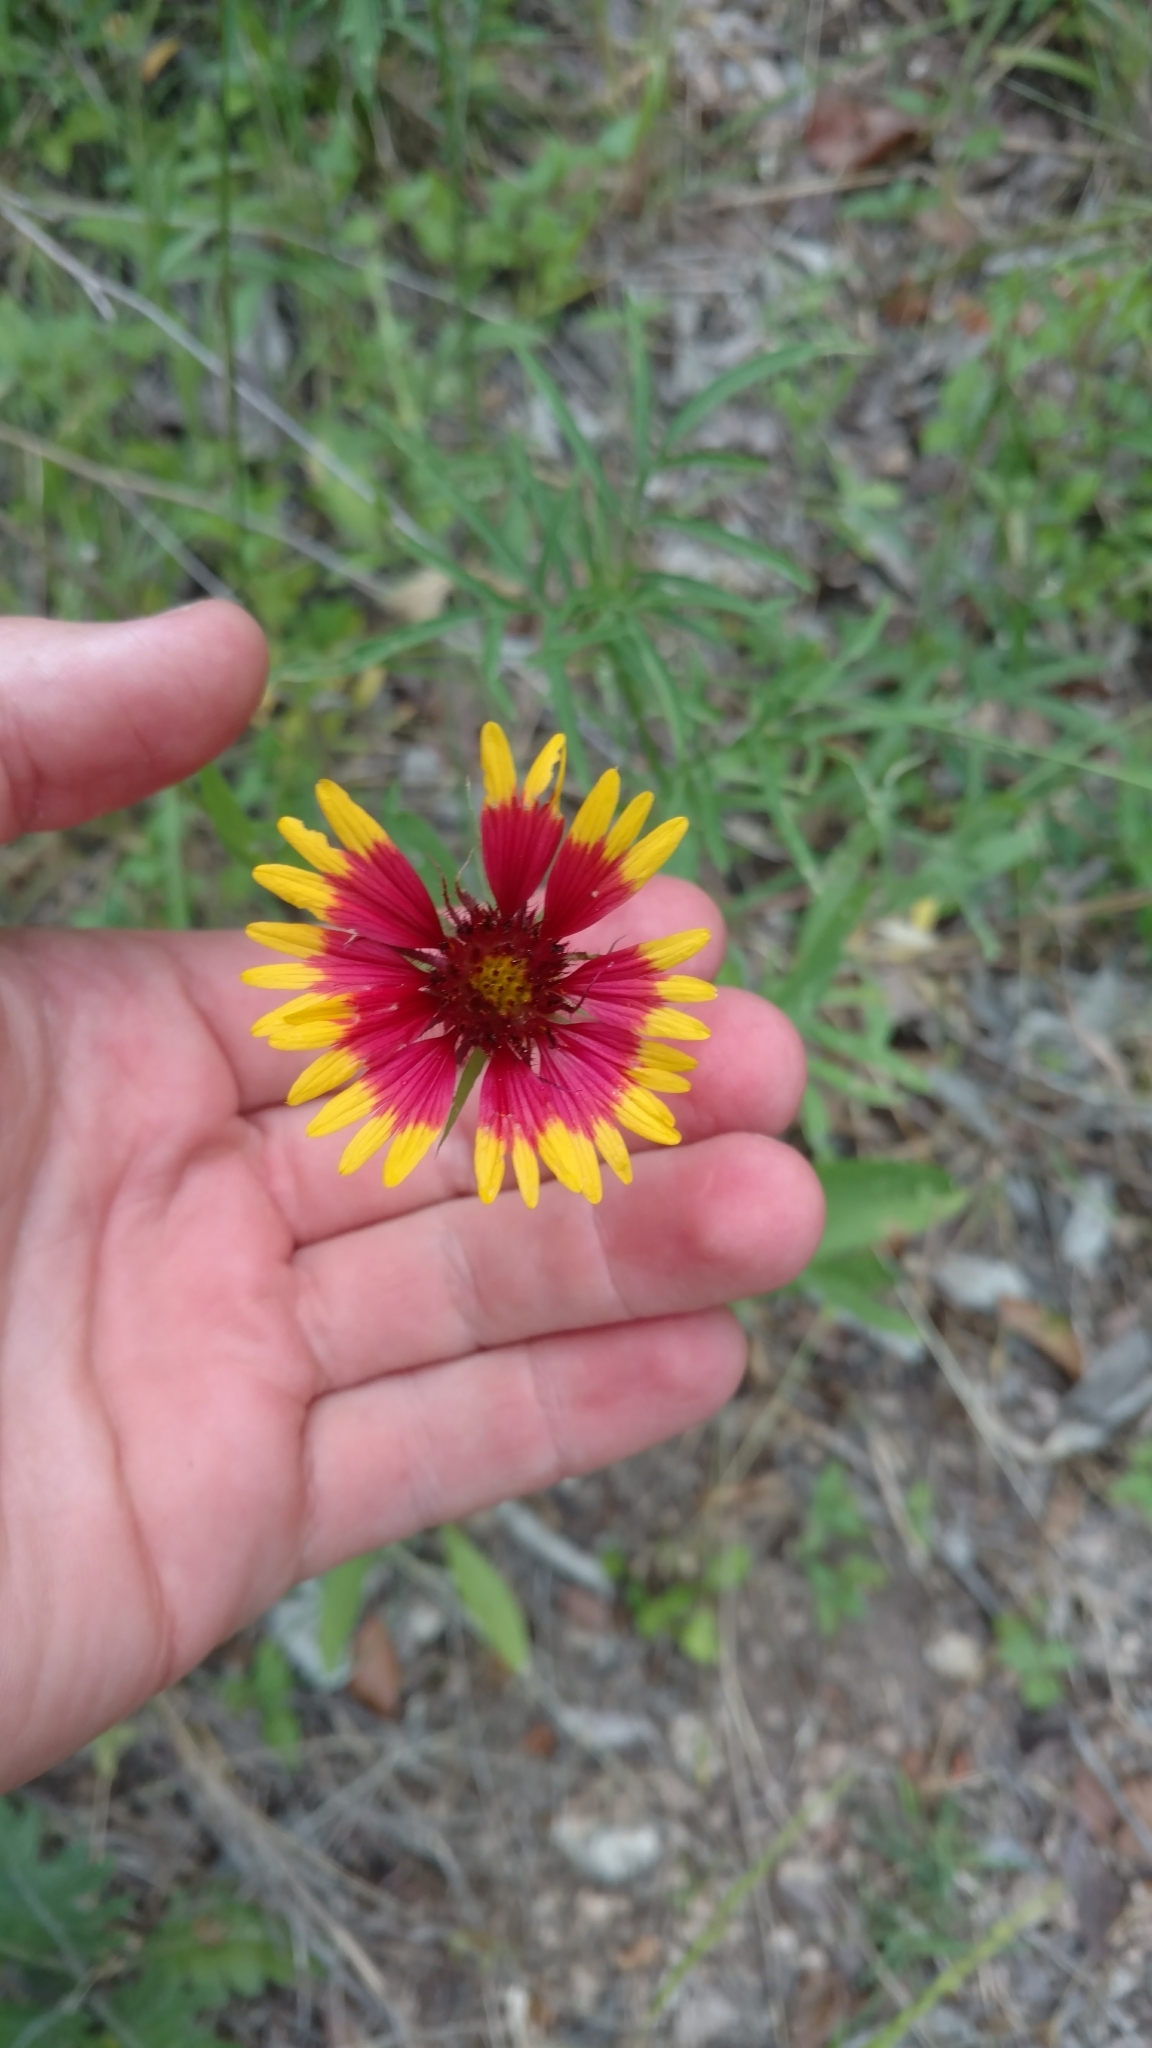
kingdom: Plantae
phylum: Tracheophyta
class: Magnoliopsida
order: Asterales
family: Asteraceae
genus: Gaillardia
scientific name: Gaillardia pulchella
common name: Firewheel
